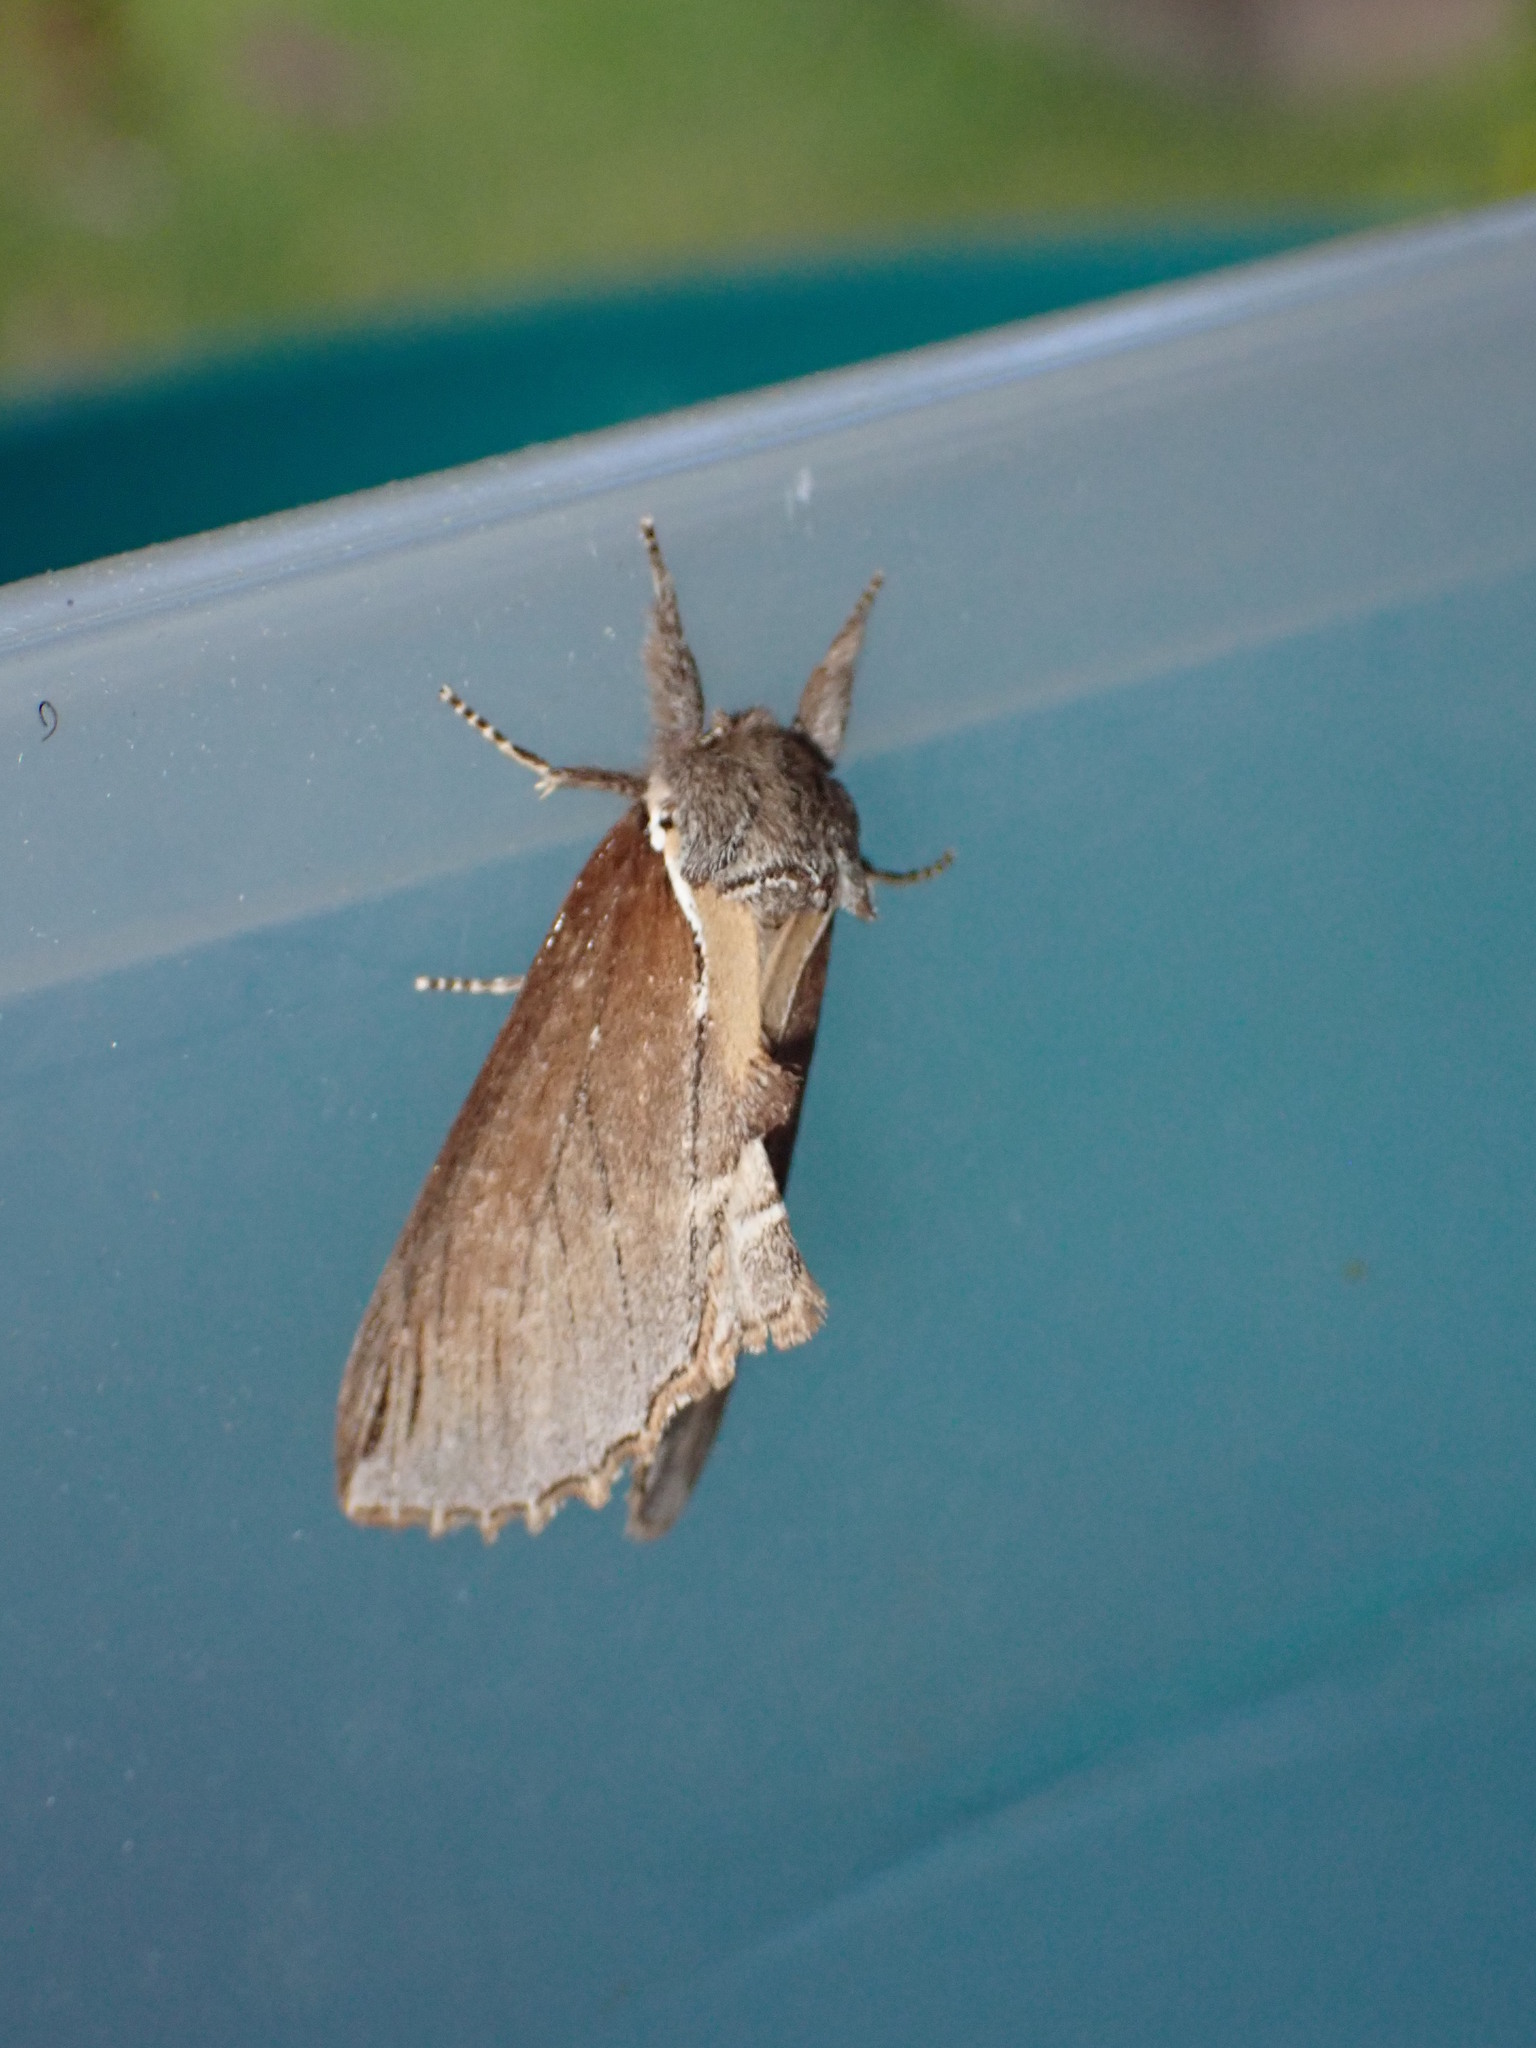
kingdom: Animalia
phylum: Arthropoda
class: Insecta
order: Lepidoptera
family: Notodontidae
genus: Pheosidea
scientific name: Pheosidea elegans
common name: Elegant prominent
